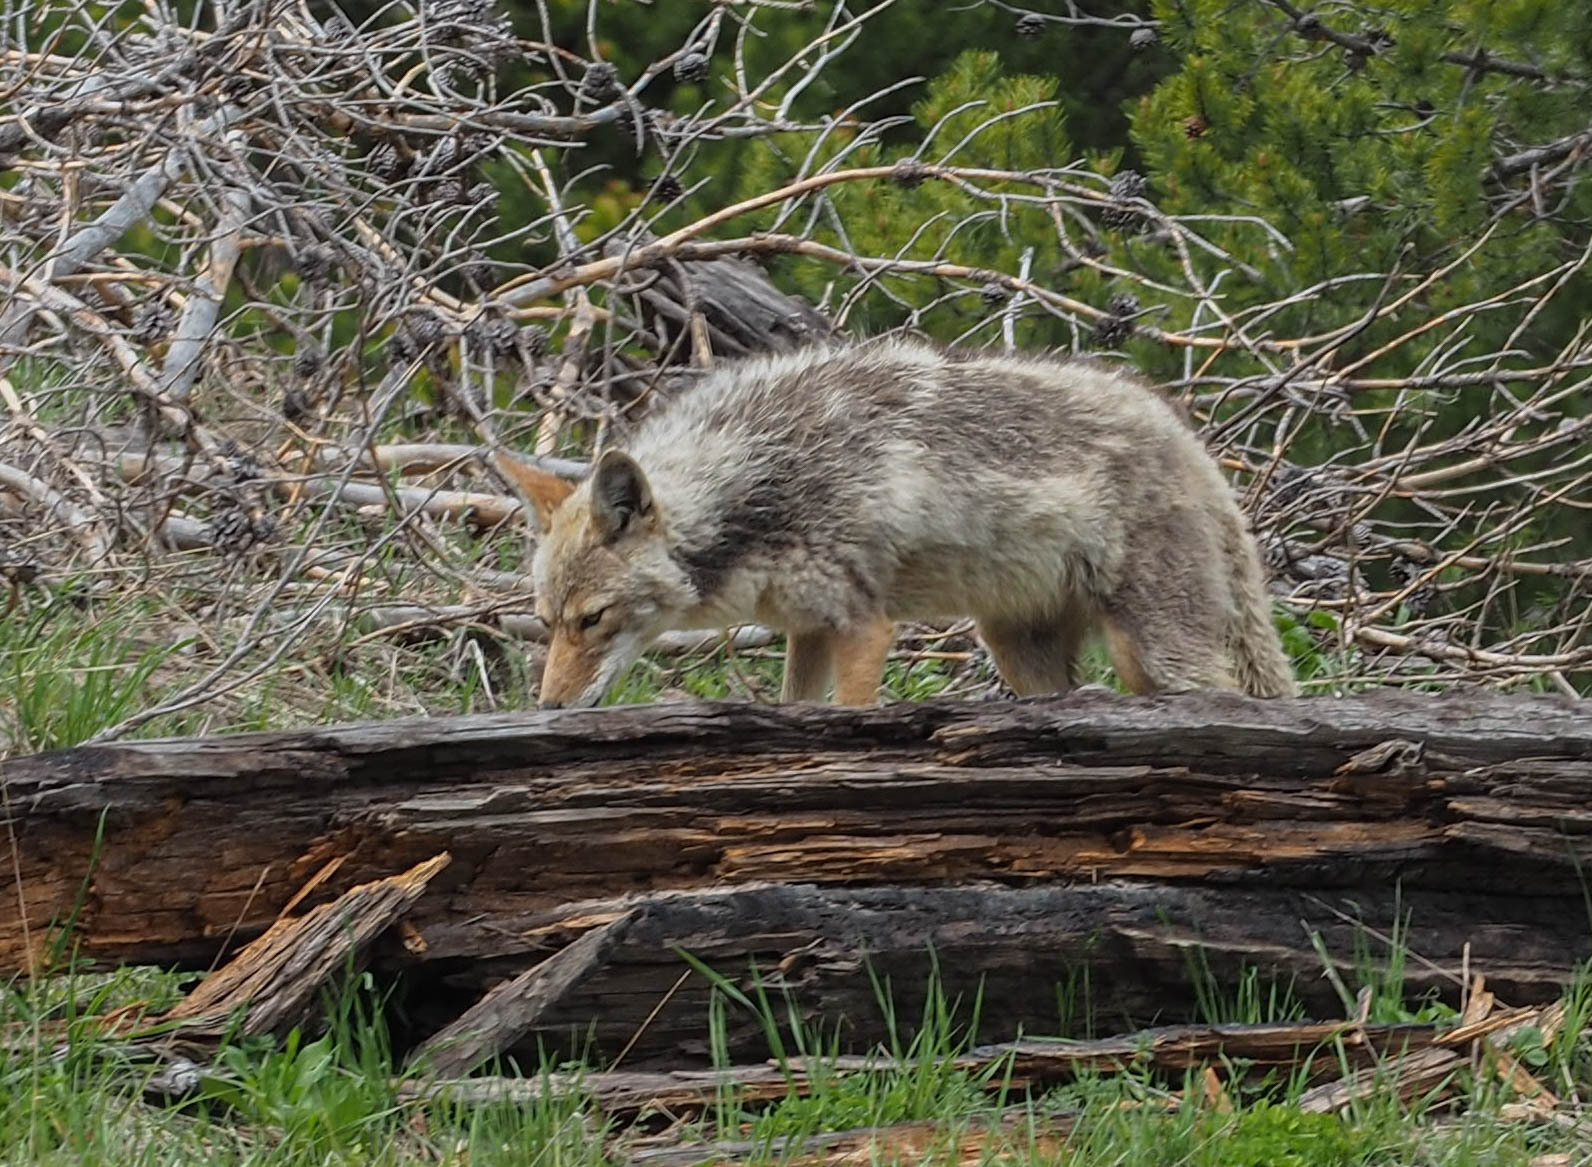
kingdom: Animalia
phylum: Chordata
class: Mammalia
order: Carnivora
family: Canidae
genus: Canis
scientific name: Canis latrans
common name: Coyote
